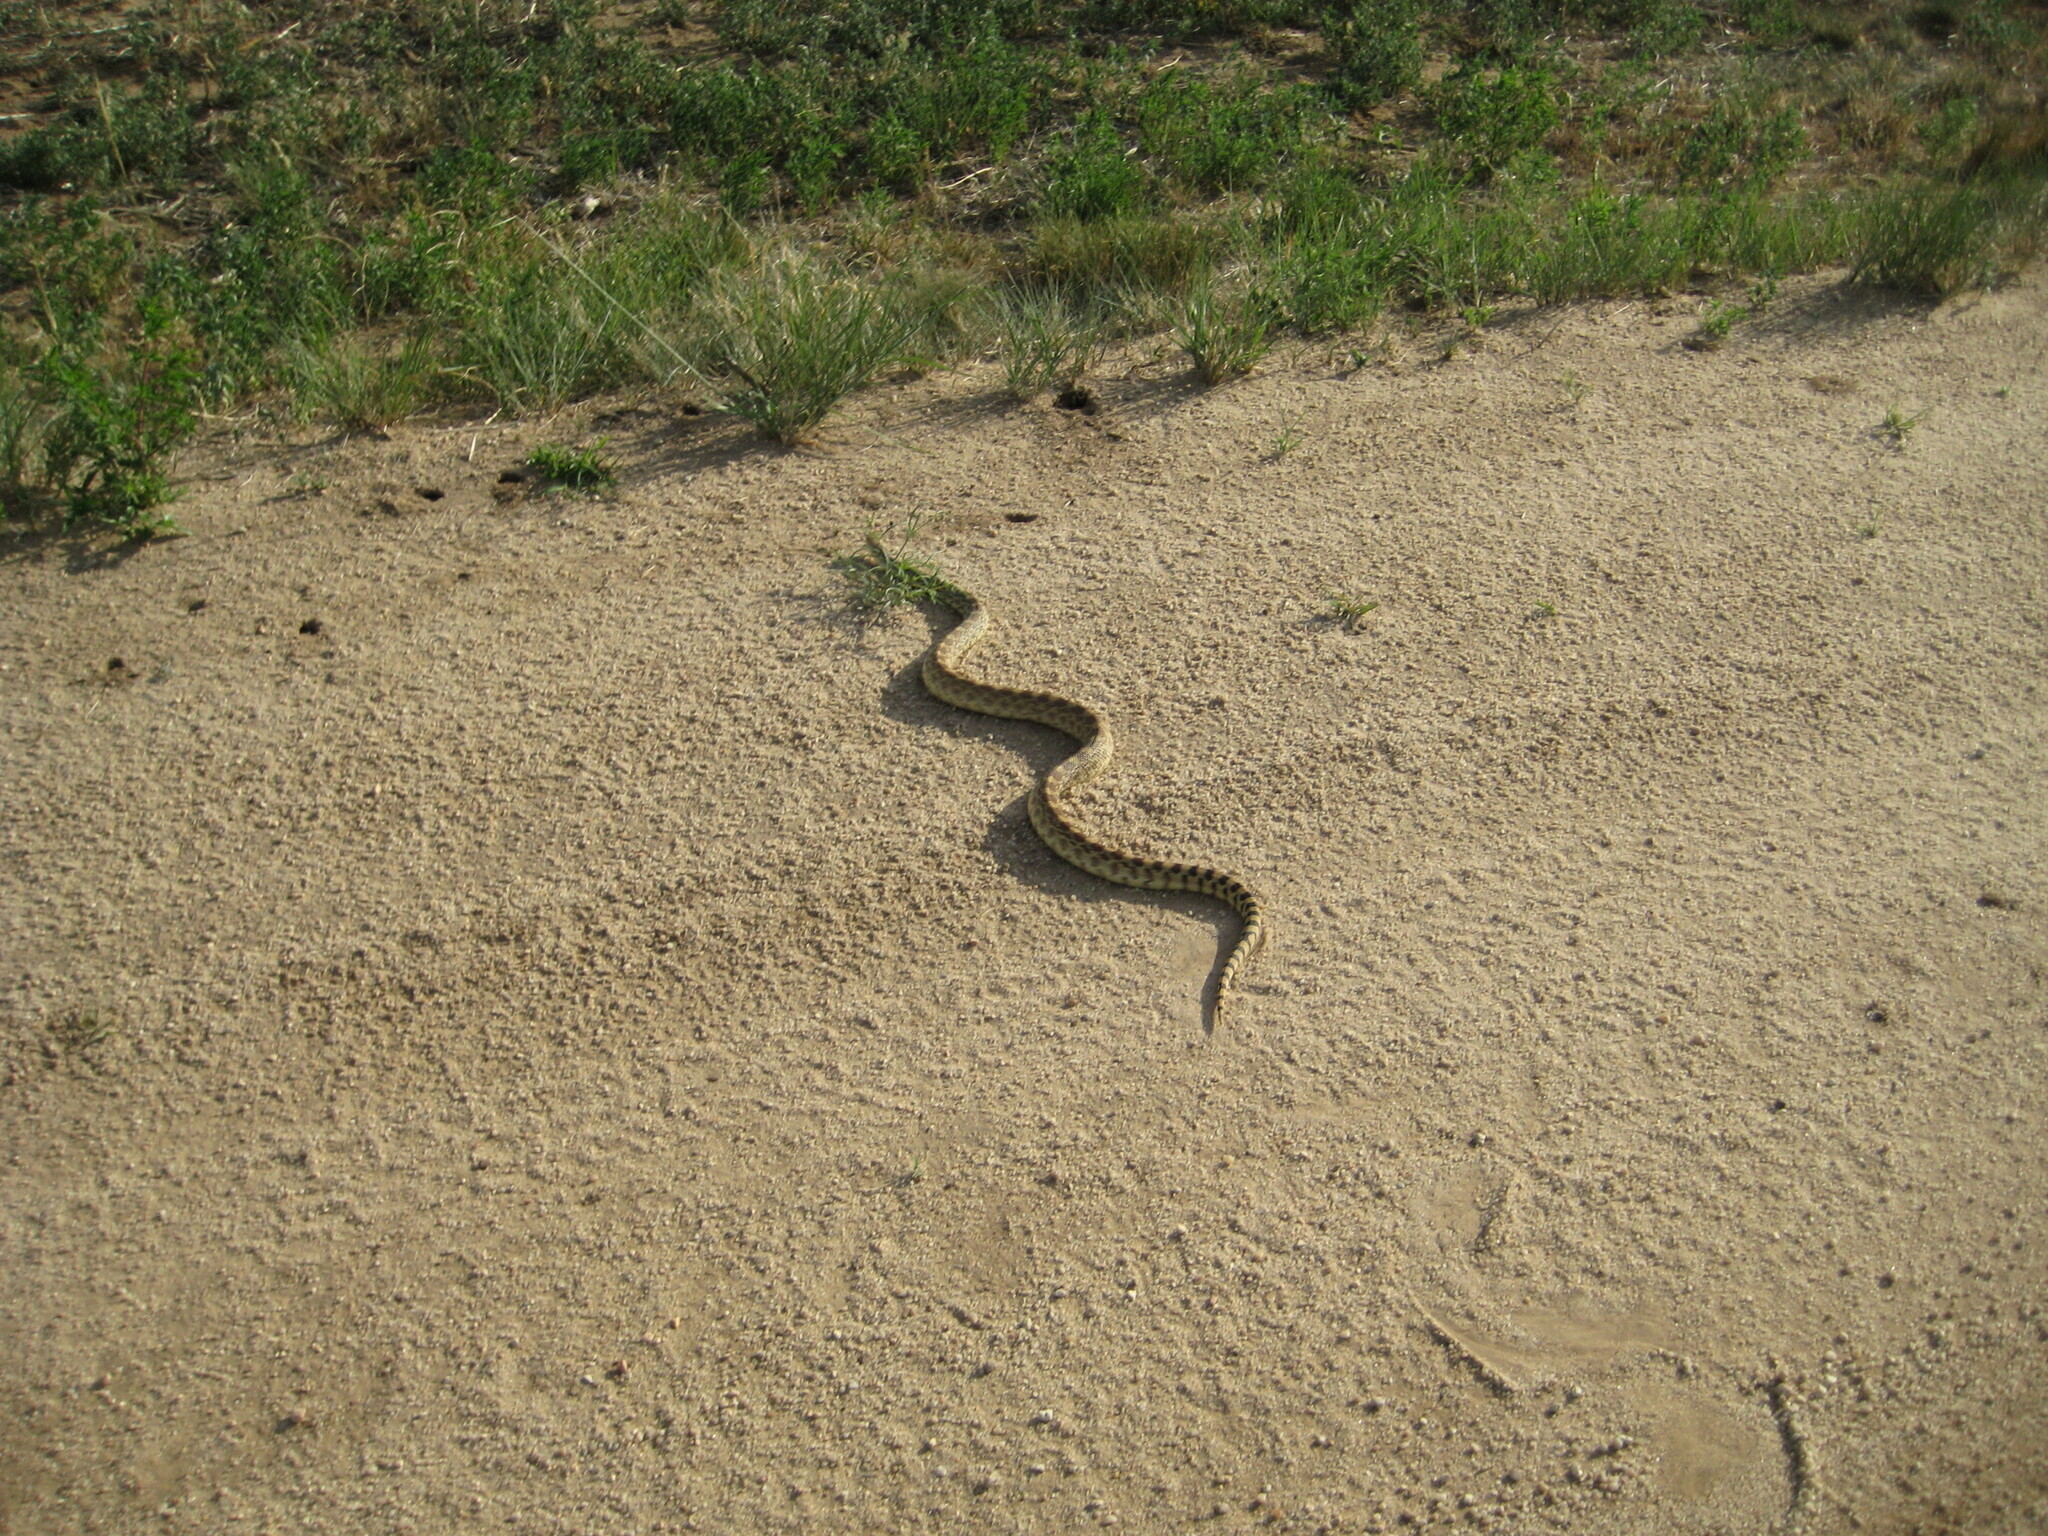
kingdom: Animalia
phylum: Chordata
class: Squamata
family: Colubridae
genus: Pituophis
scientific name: Pituophis catenifer
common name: Gopher snake
